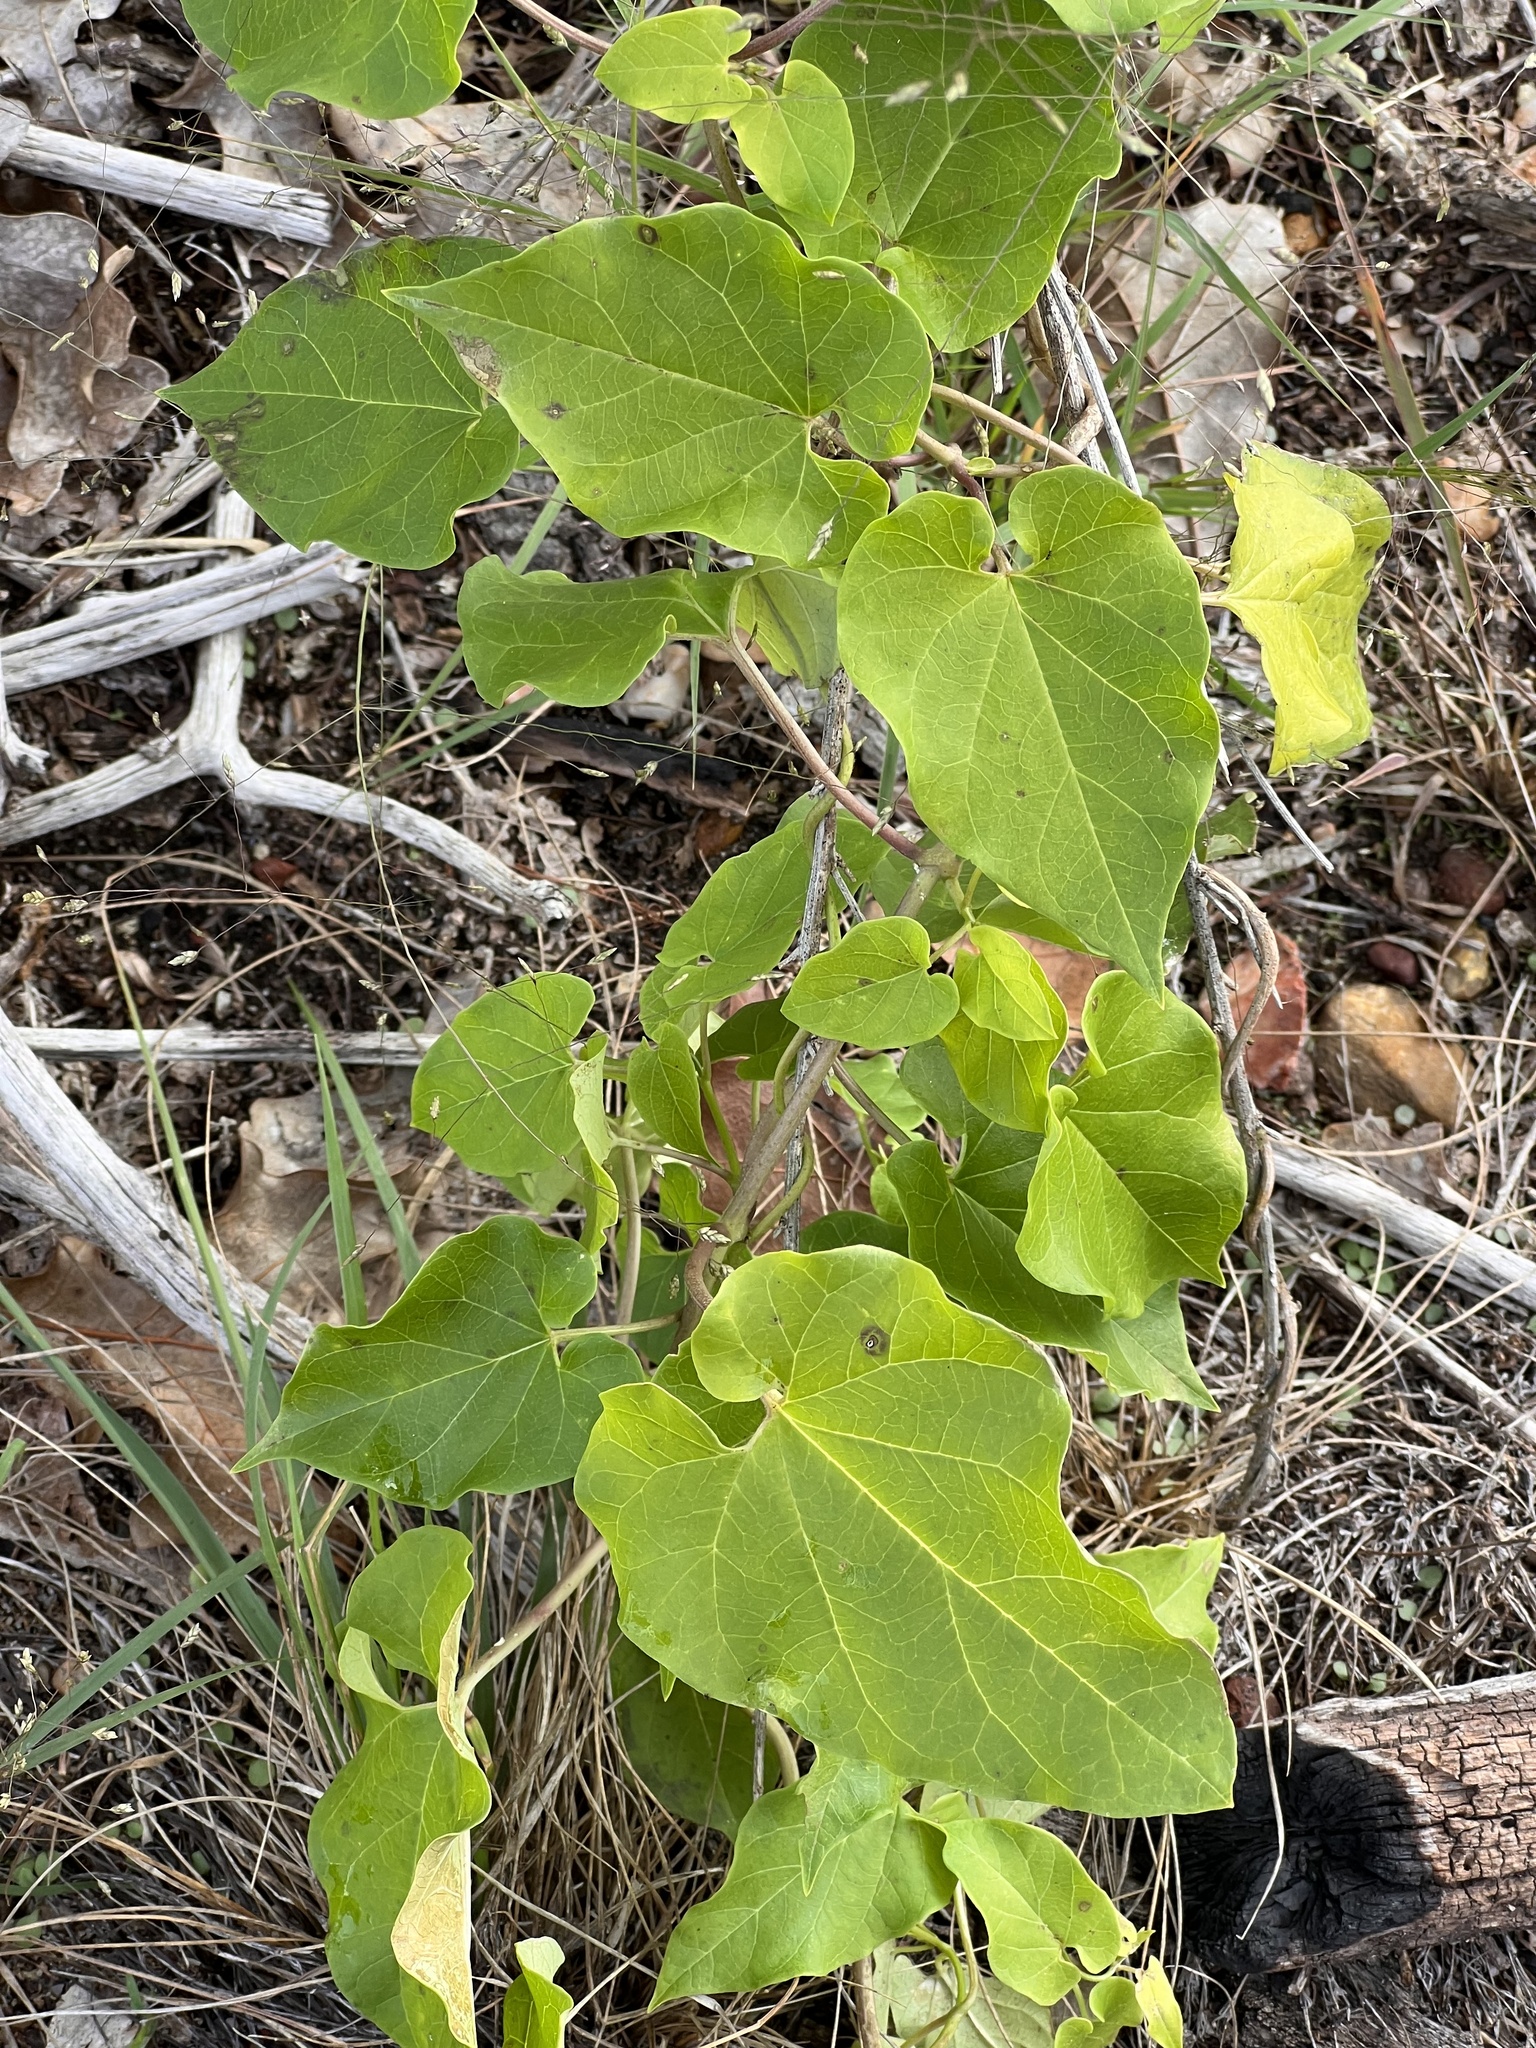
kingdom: Plantae
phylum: Tracheophyta
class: Magnoliopsida
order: Gentianales
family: Apocynaceae
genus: Cynanchum
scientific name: Cynanchum racemosum
